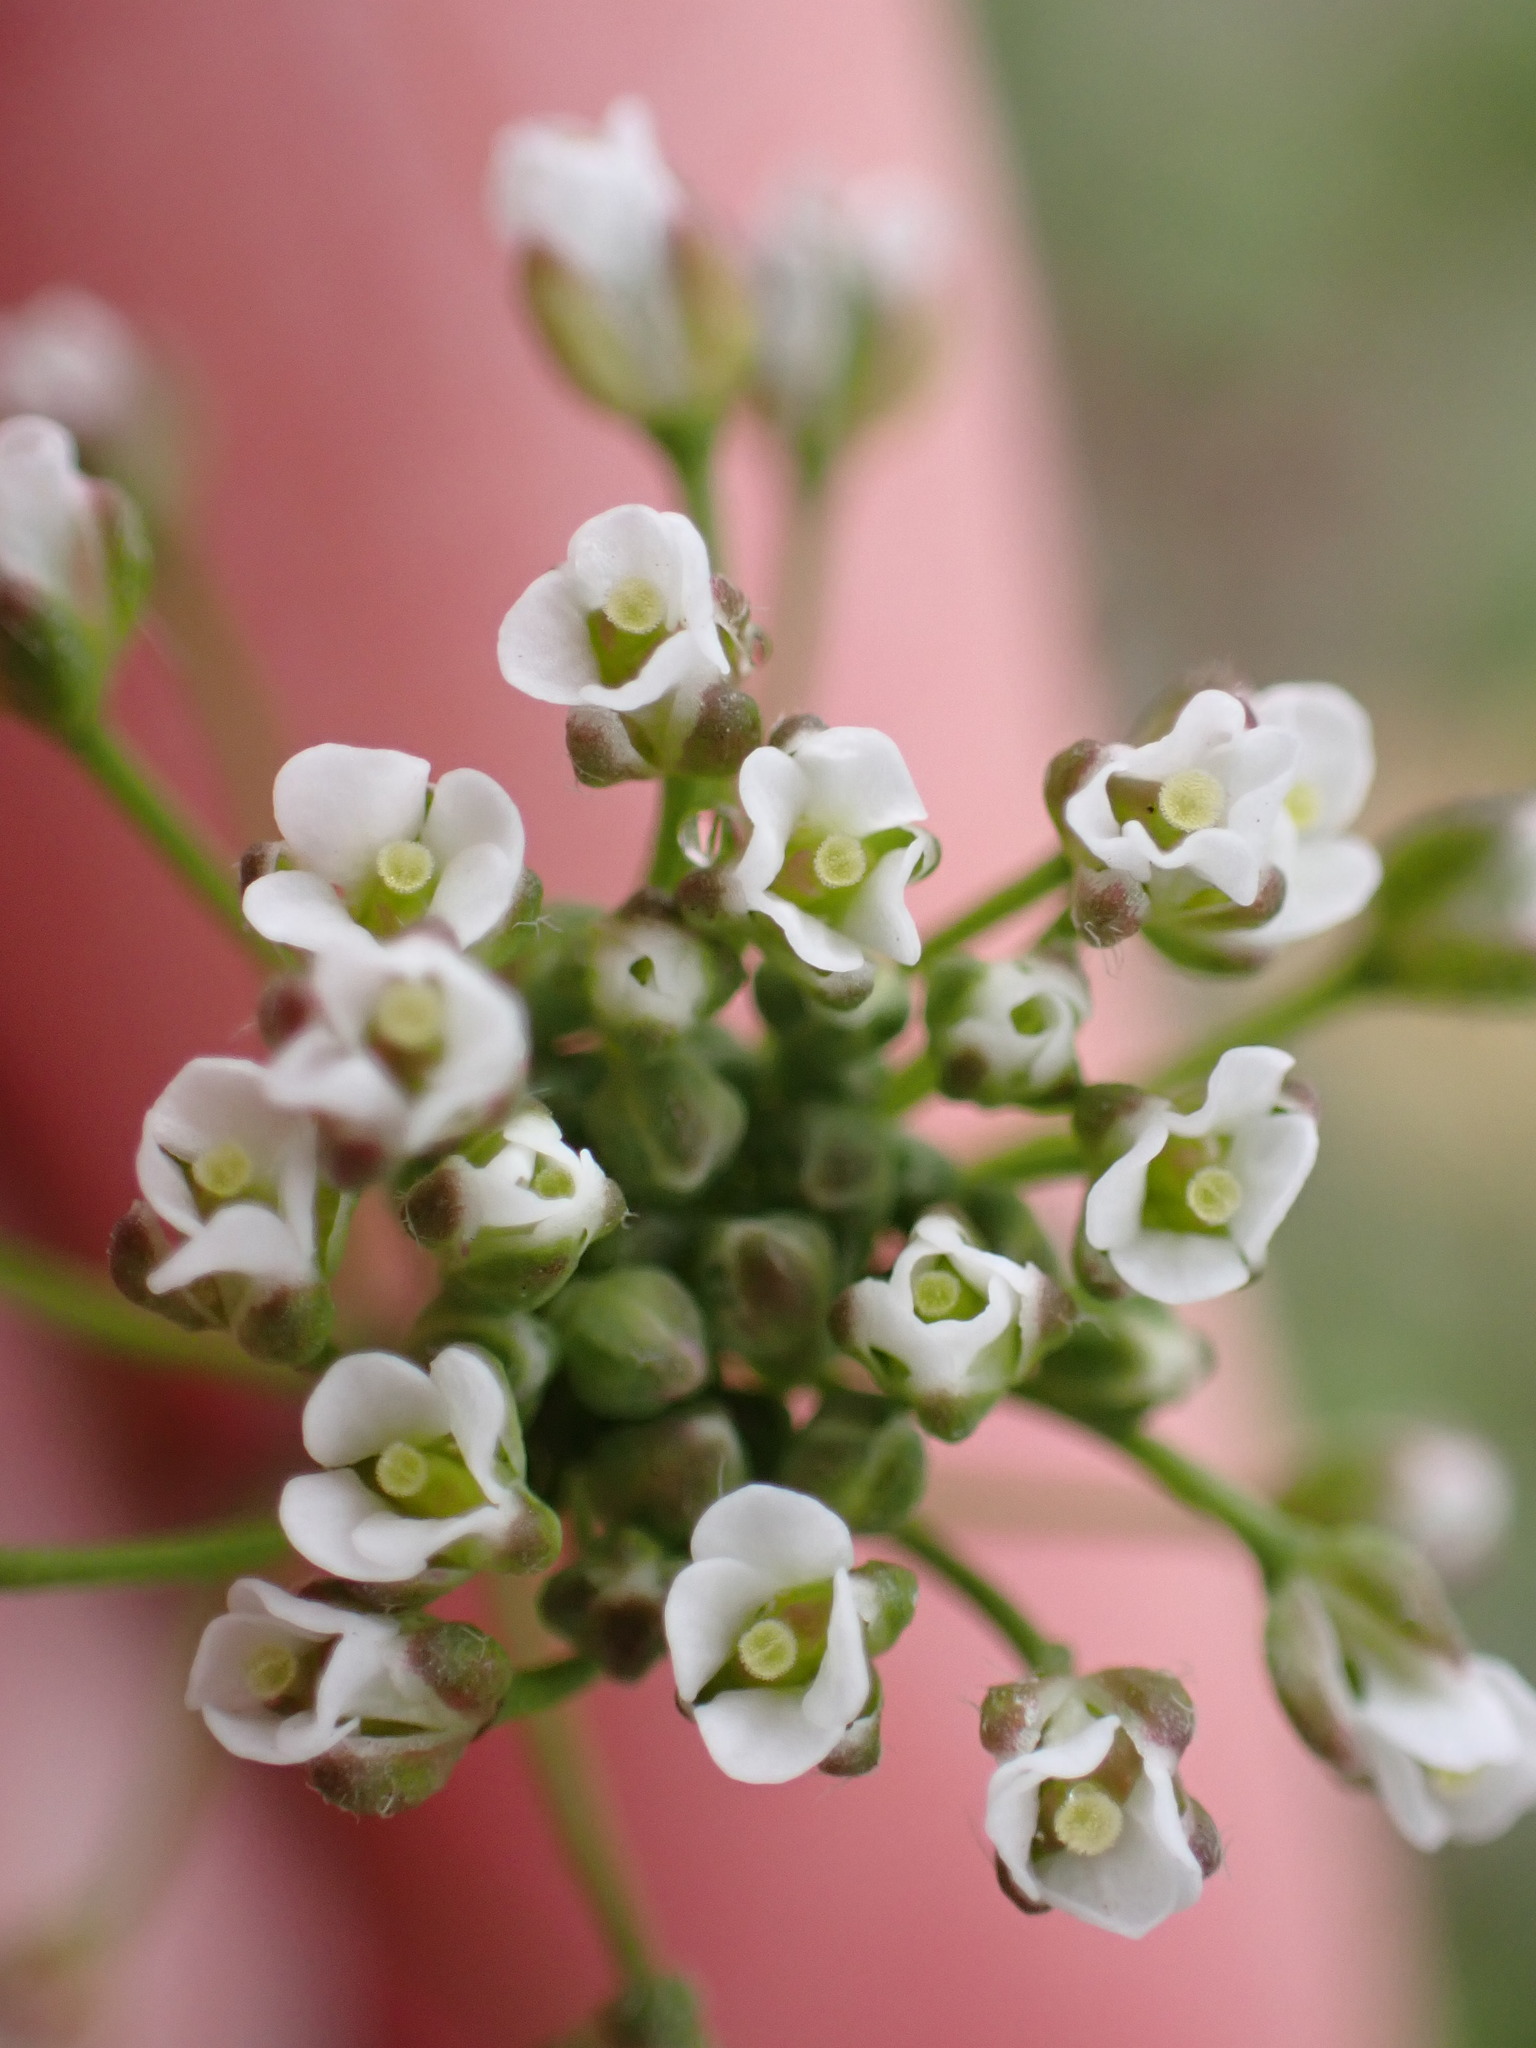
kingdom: Plantae
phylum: Tracheophyta
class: Magnoliopsida
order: Brassicales
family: Brassicaceae
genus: Capsella
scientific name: Capsella bursa-pastoris
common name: Shepherd's purse
